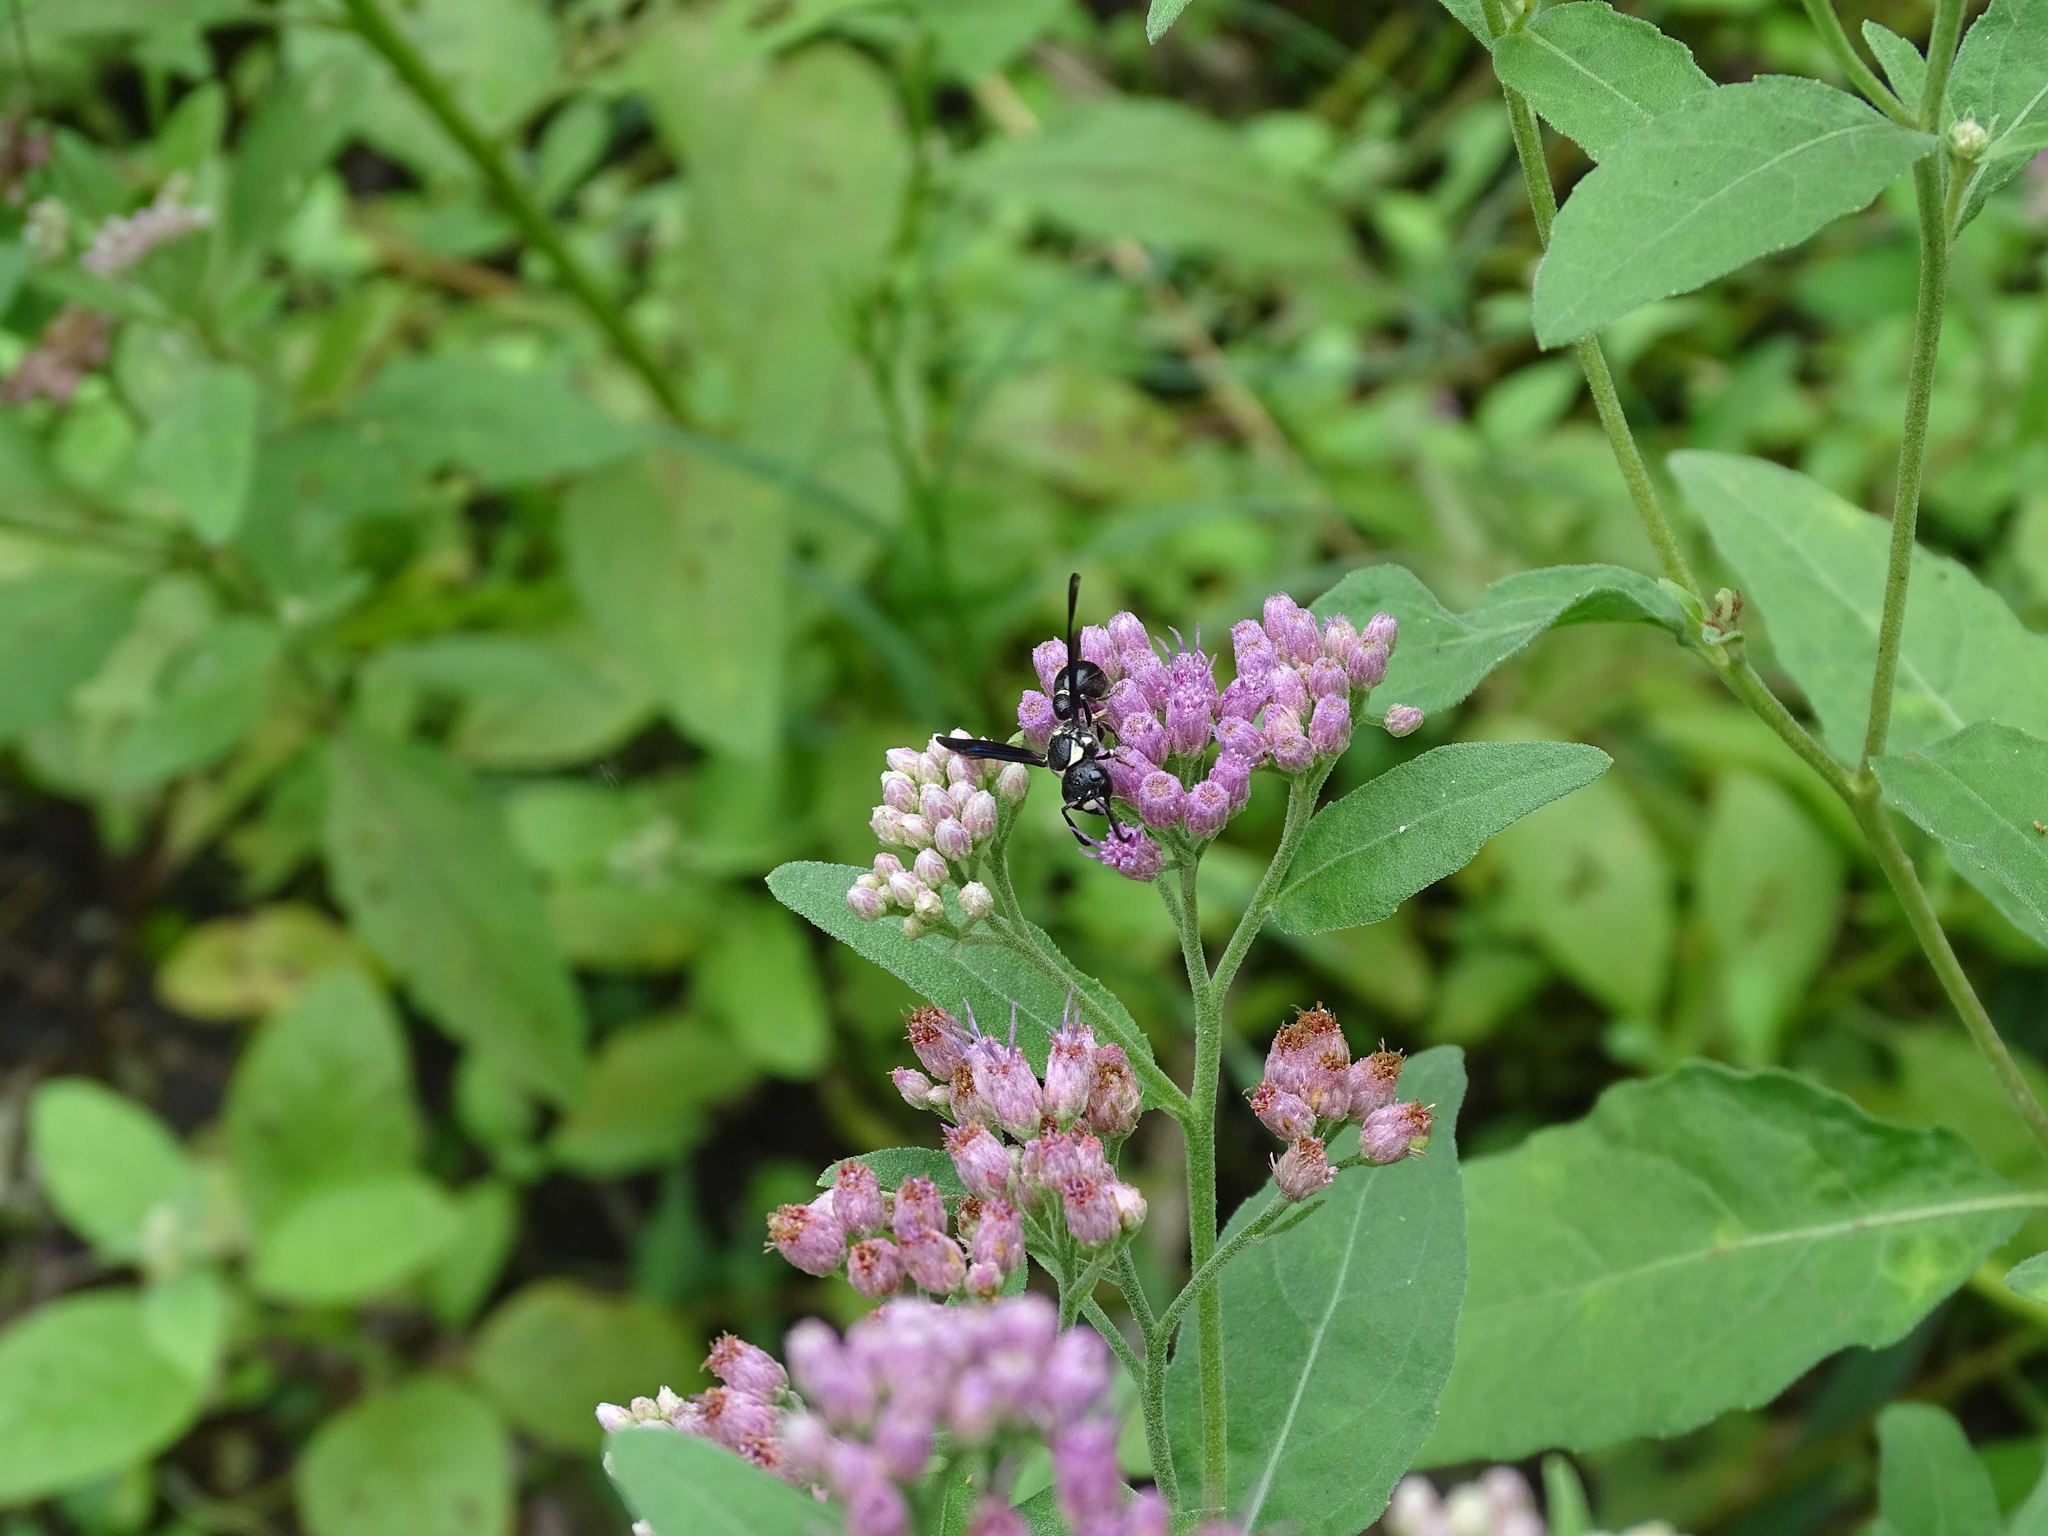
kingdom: Animalia
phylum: Arthropoda
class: Insecta
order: Hymenoptera
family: Eumenidae
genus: Zethus
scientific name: Zethus spinipes
